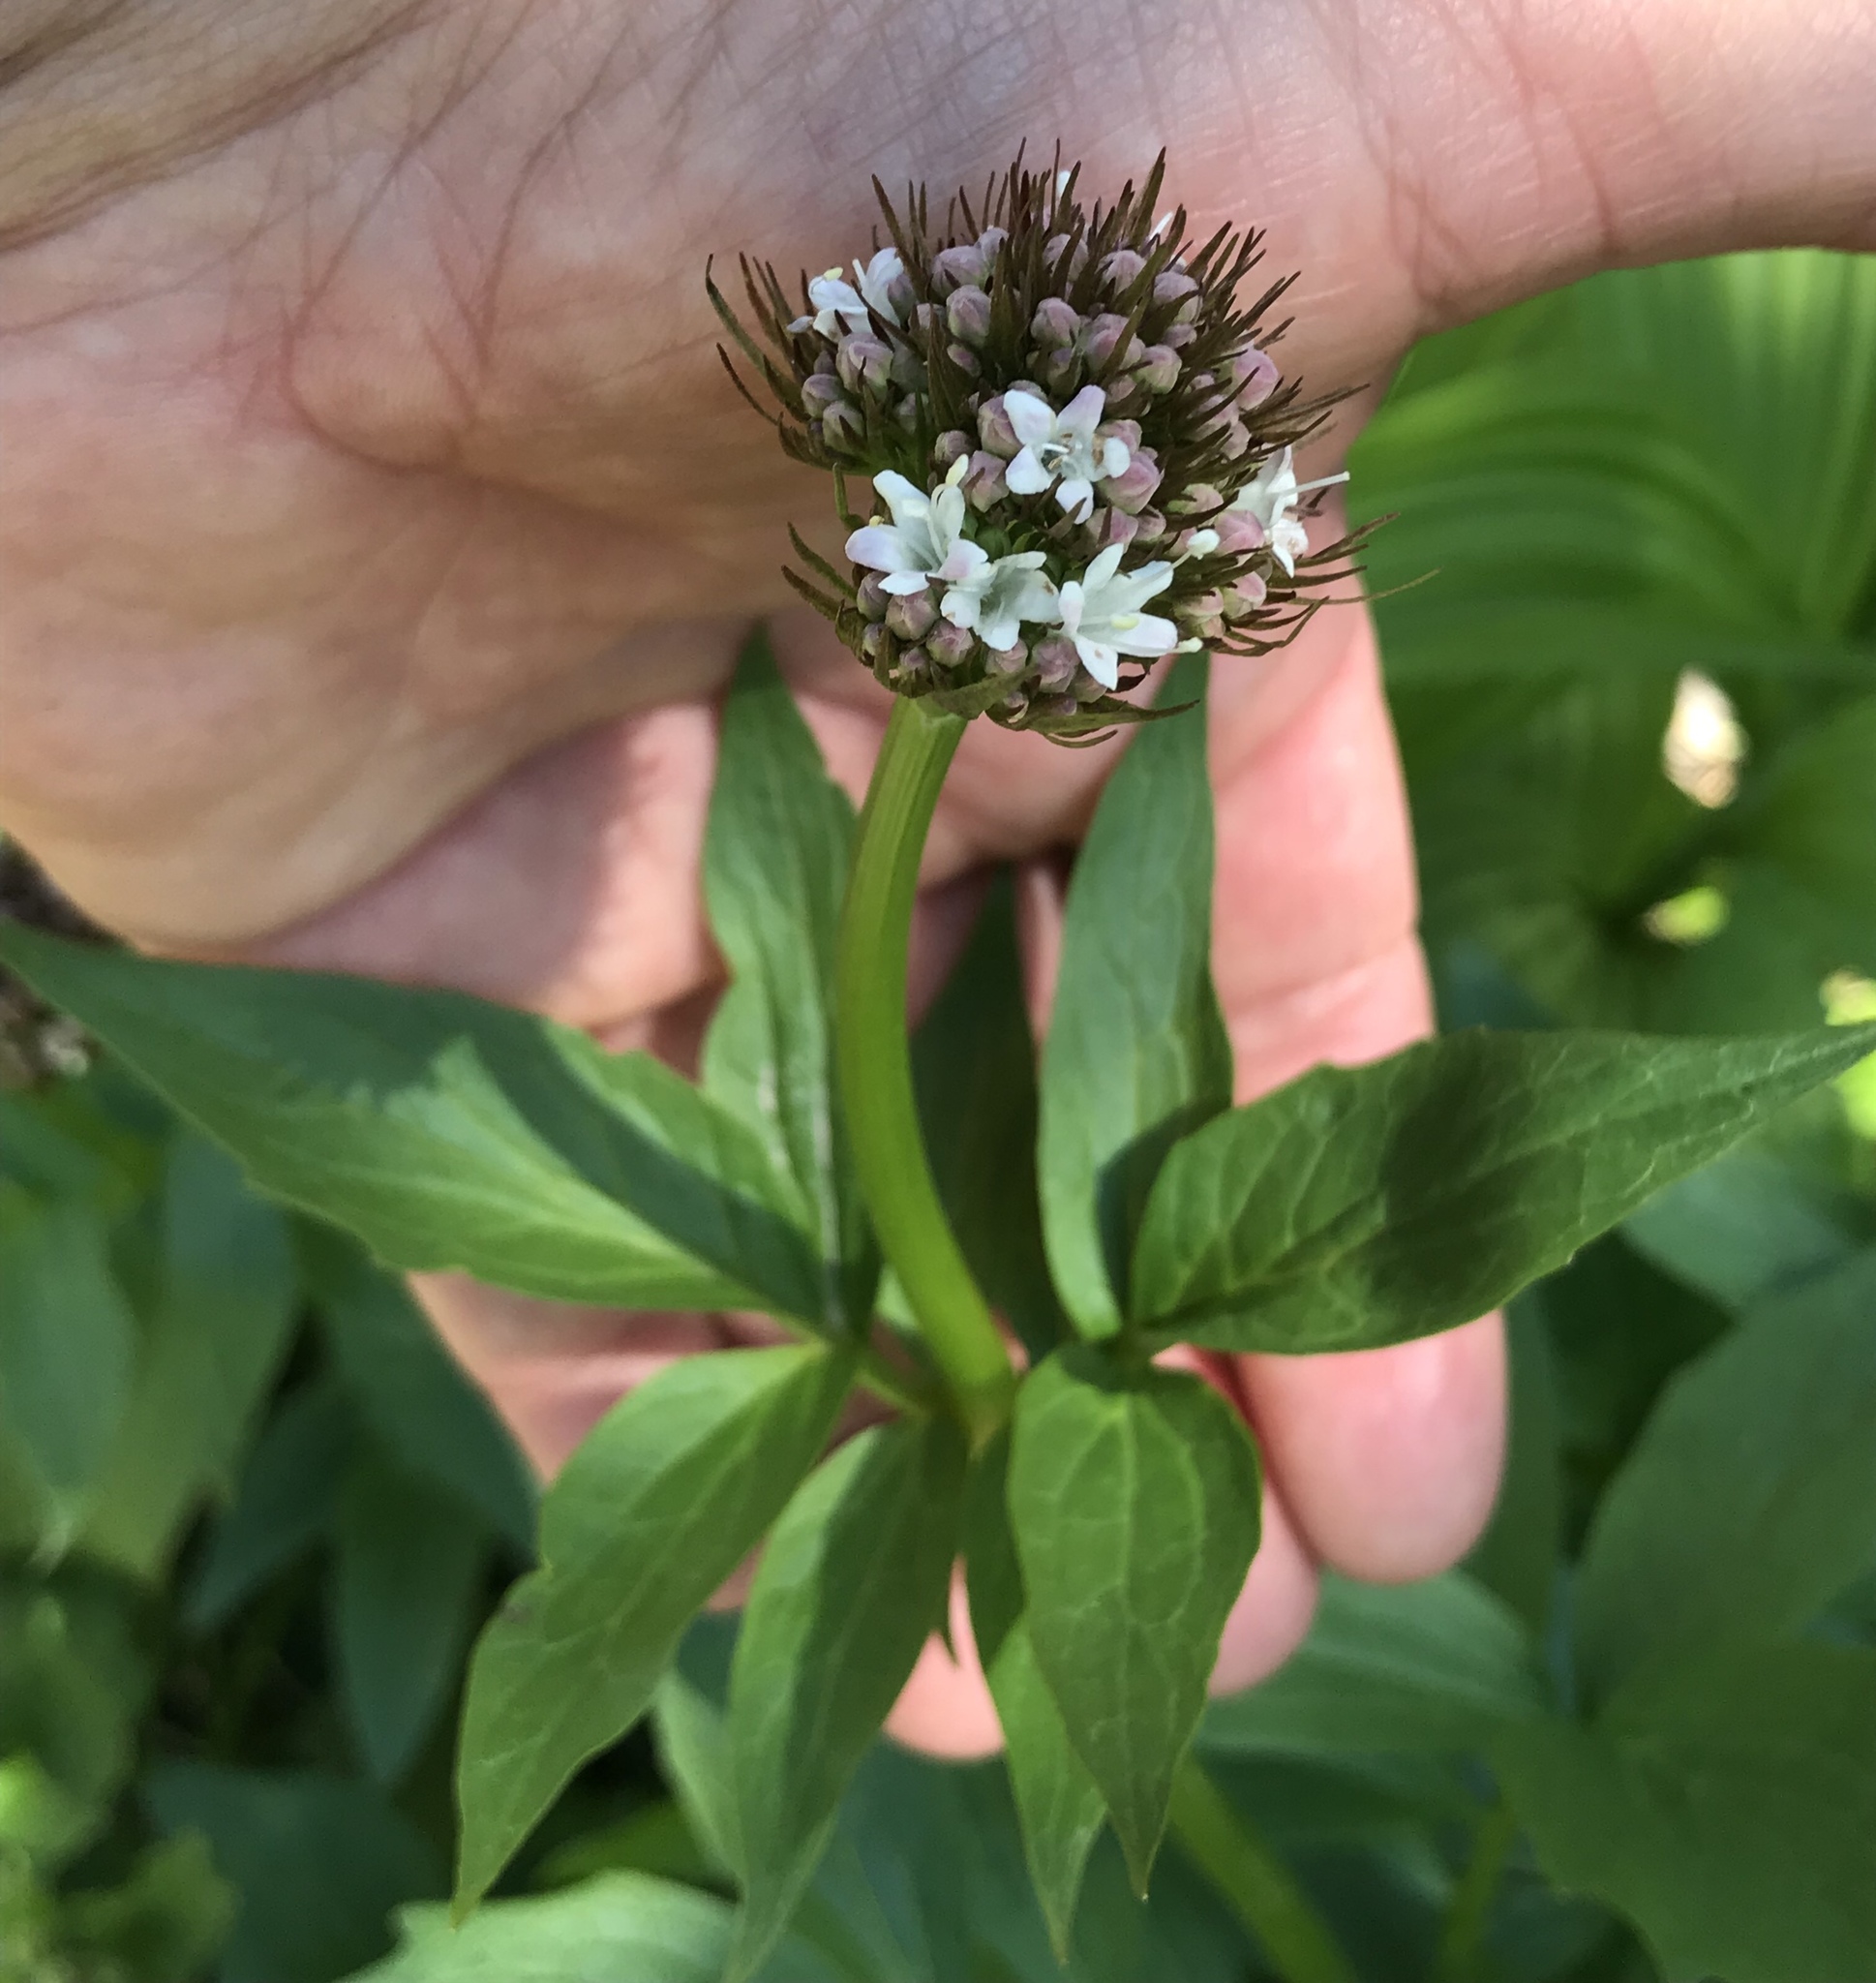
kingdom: Plantae
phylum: Tracheophyta
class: Magnoliopsida
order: Dipsacales
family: Caprifoliaceae
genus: Valeriana
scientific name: Valeriana sitchensis
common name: Pacific valerian
